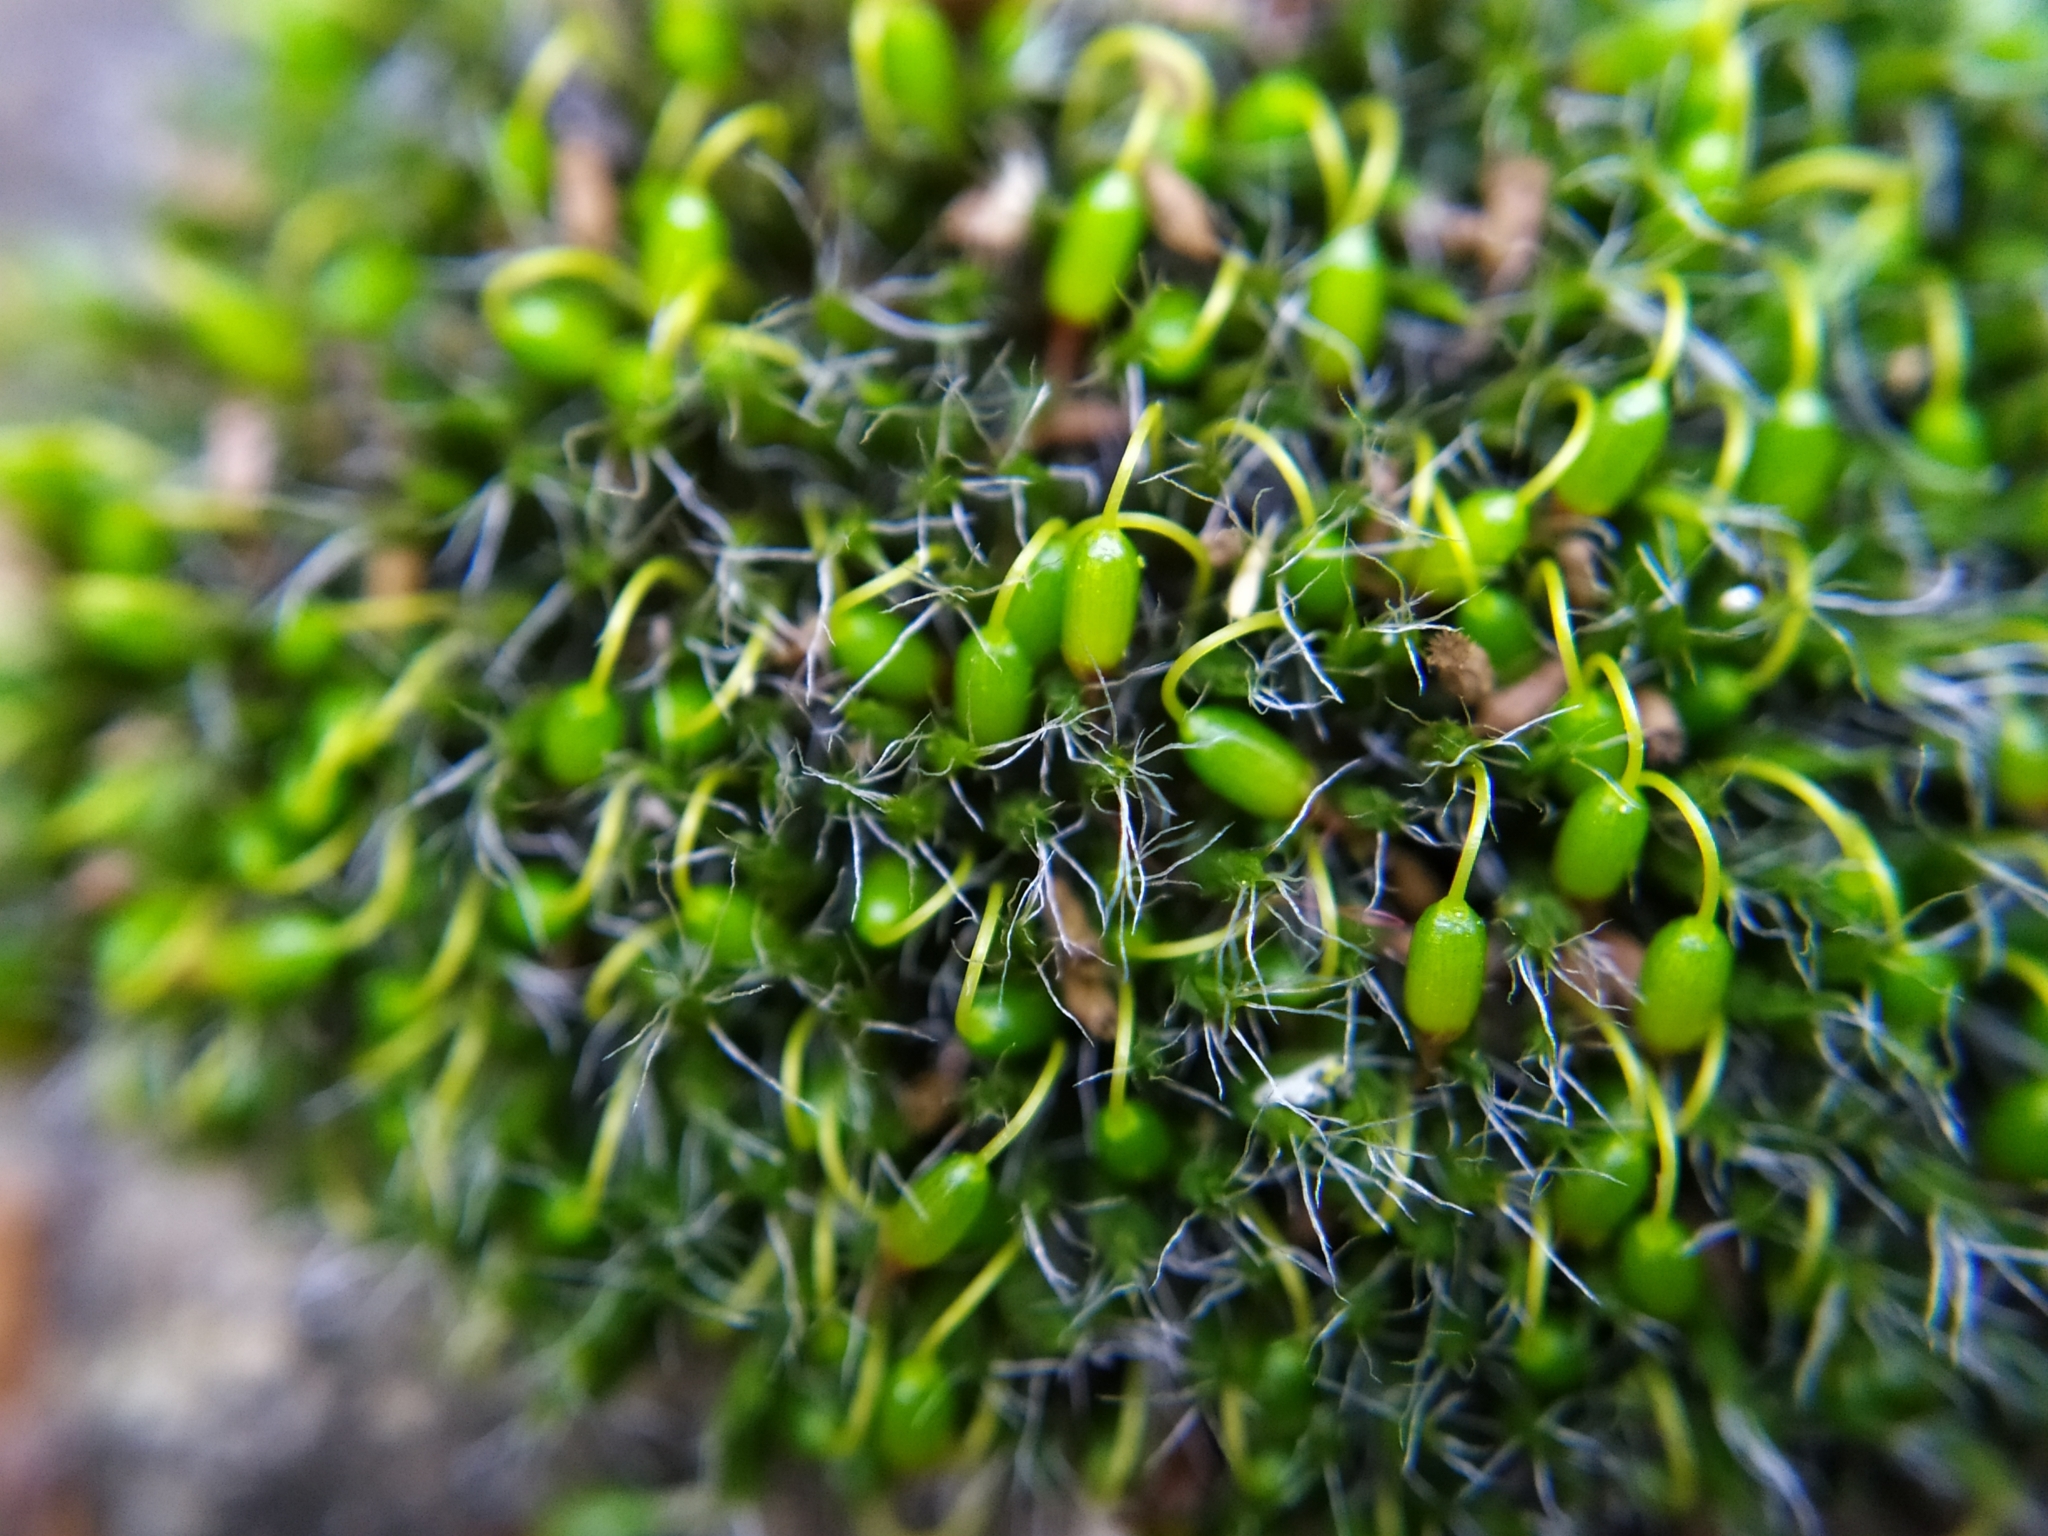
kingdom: Plantae
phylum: Bryophyta
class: Bryopsida
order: Grimmiales
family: Grimmiaceae
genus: Grimmia
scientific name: Grimmia pulvinata
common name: Grey-cushioned grimmia
